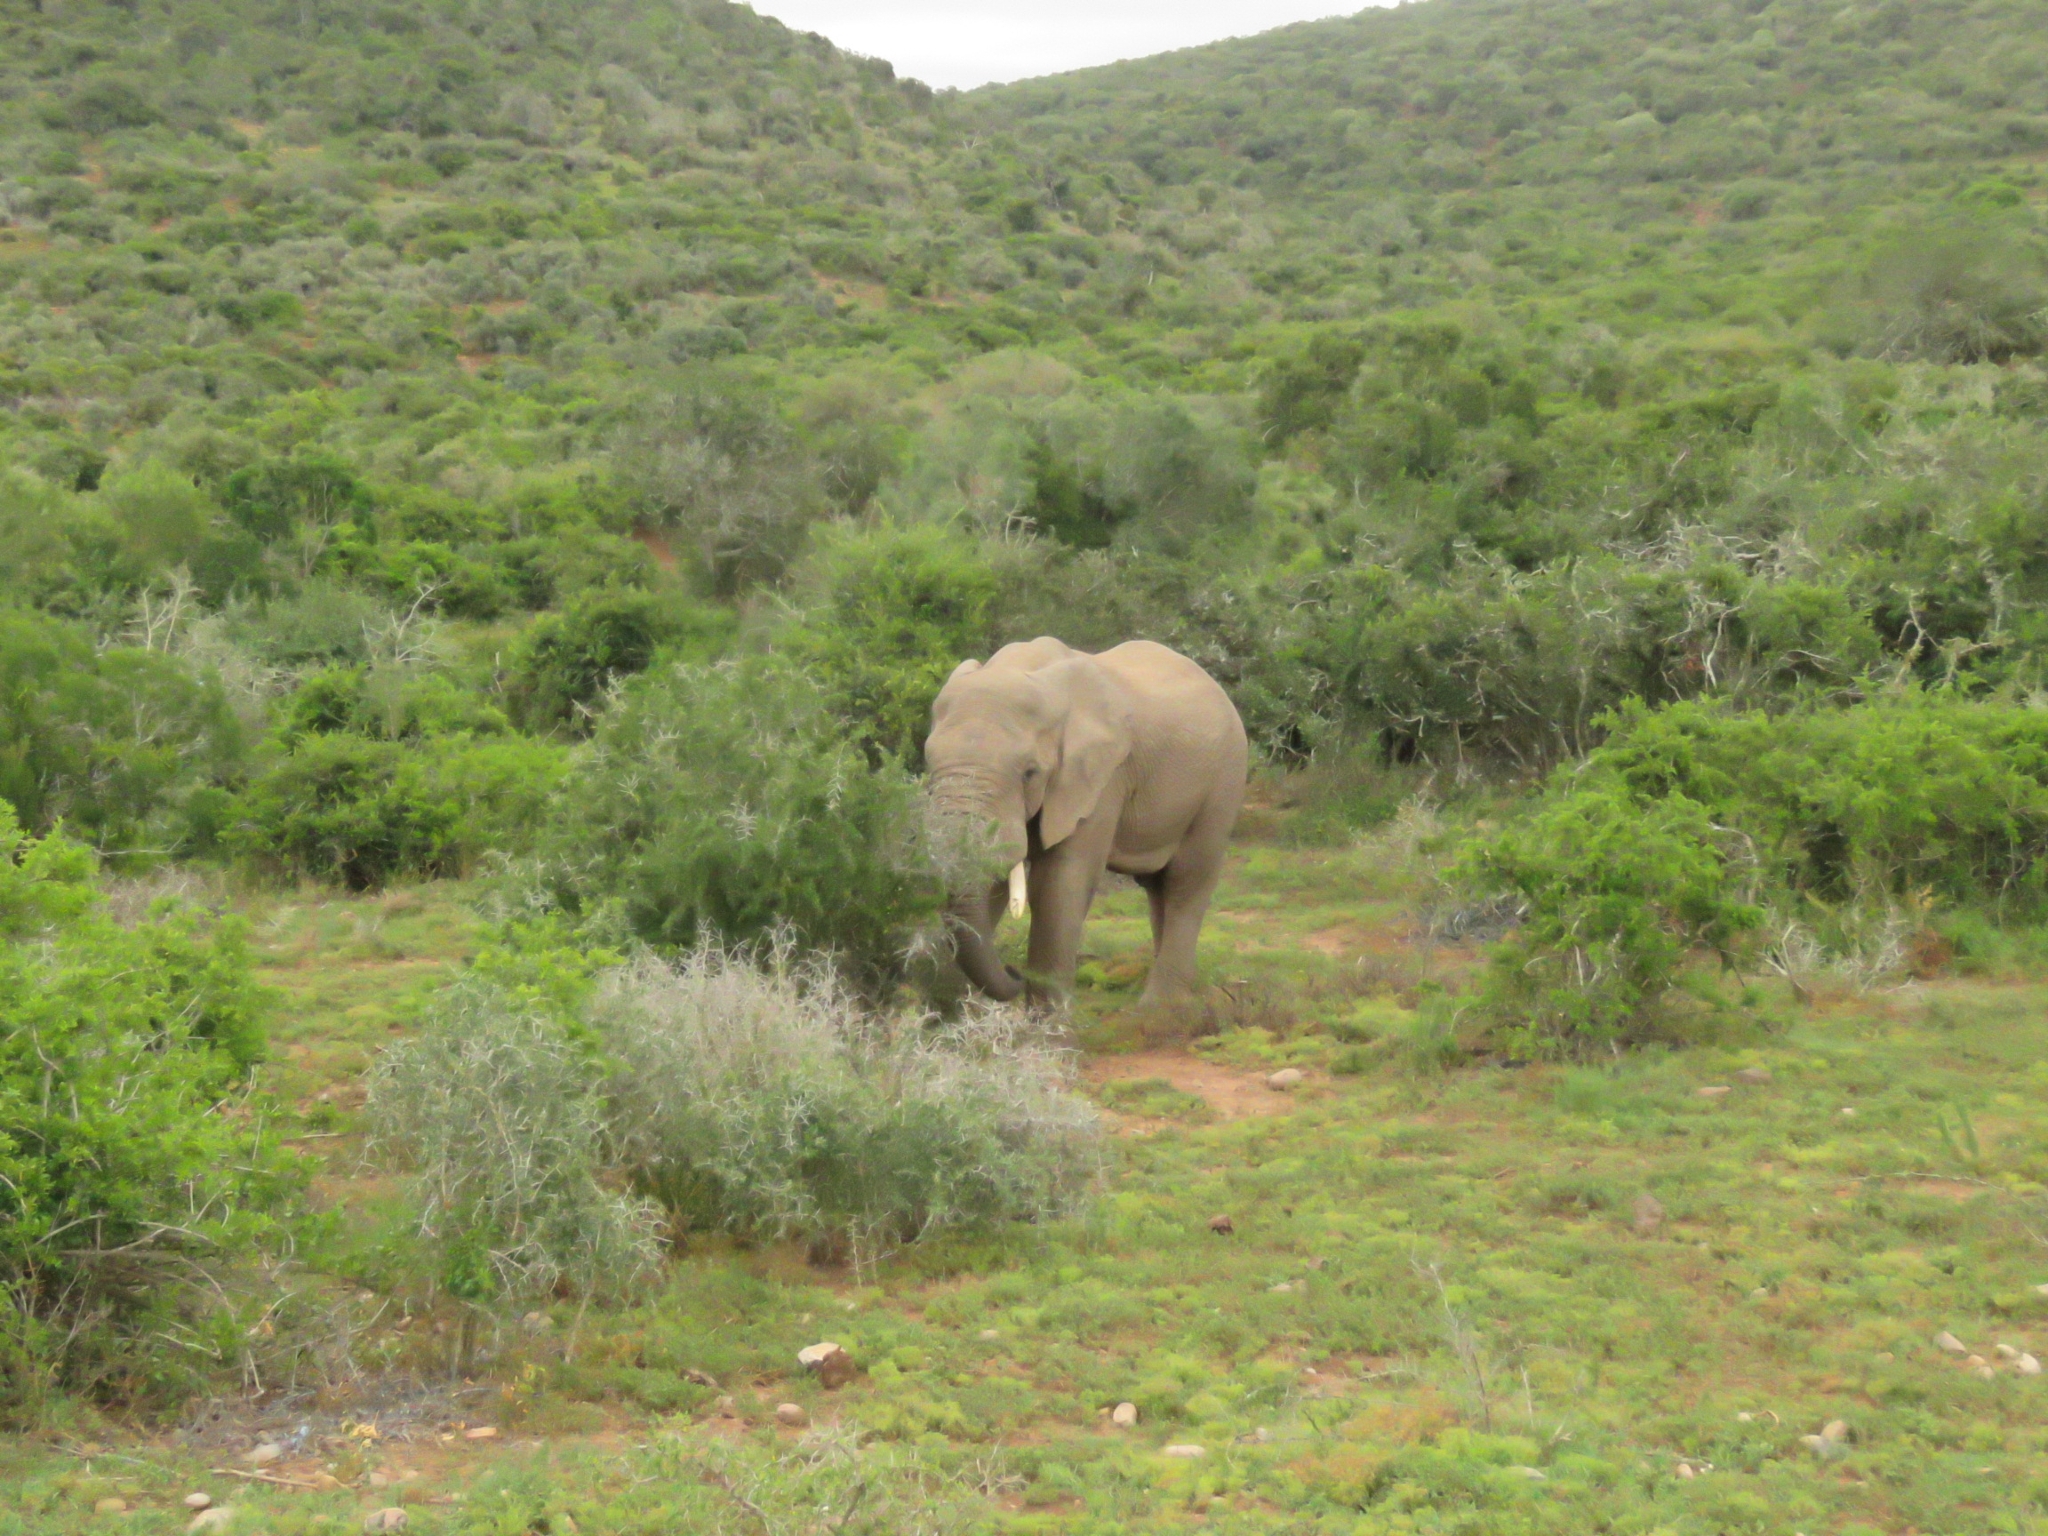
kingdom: Animalia
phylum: Chordata
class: Mammalia
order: Proboscidea
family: Elephantidae
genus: Loxodonta
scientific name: Loxodonta africana
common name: African elephant
